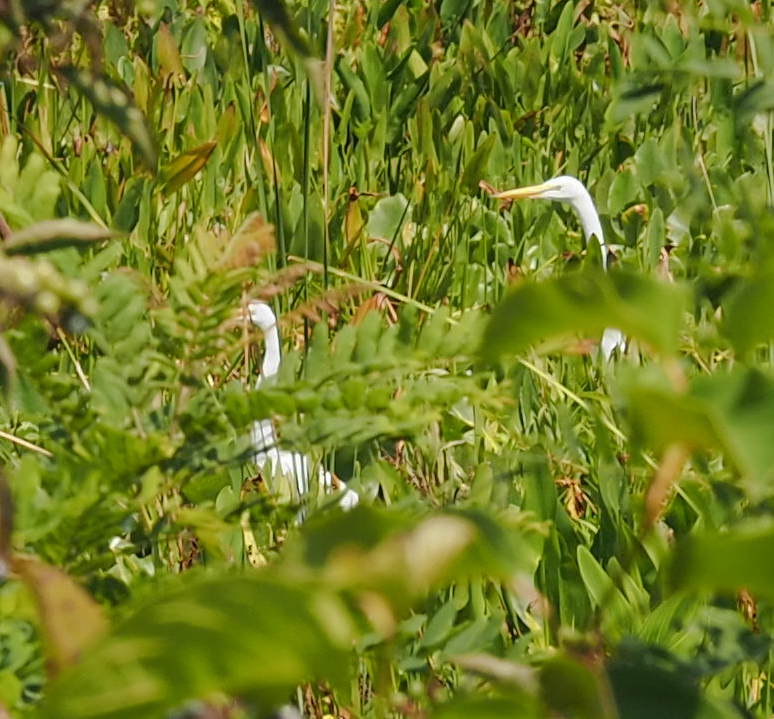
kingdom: Animalia
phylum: Chordata
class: Aves
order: Pelecaniformes
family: Ardeidae
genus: Ardea
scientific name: Ardea alba
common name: Great egret
